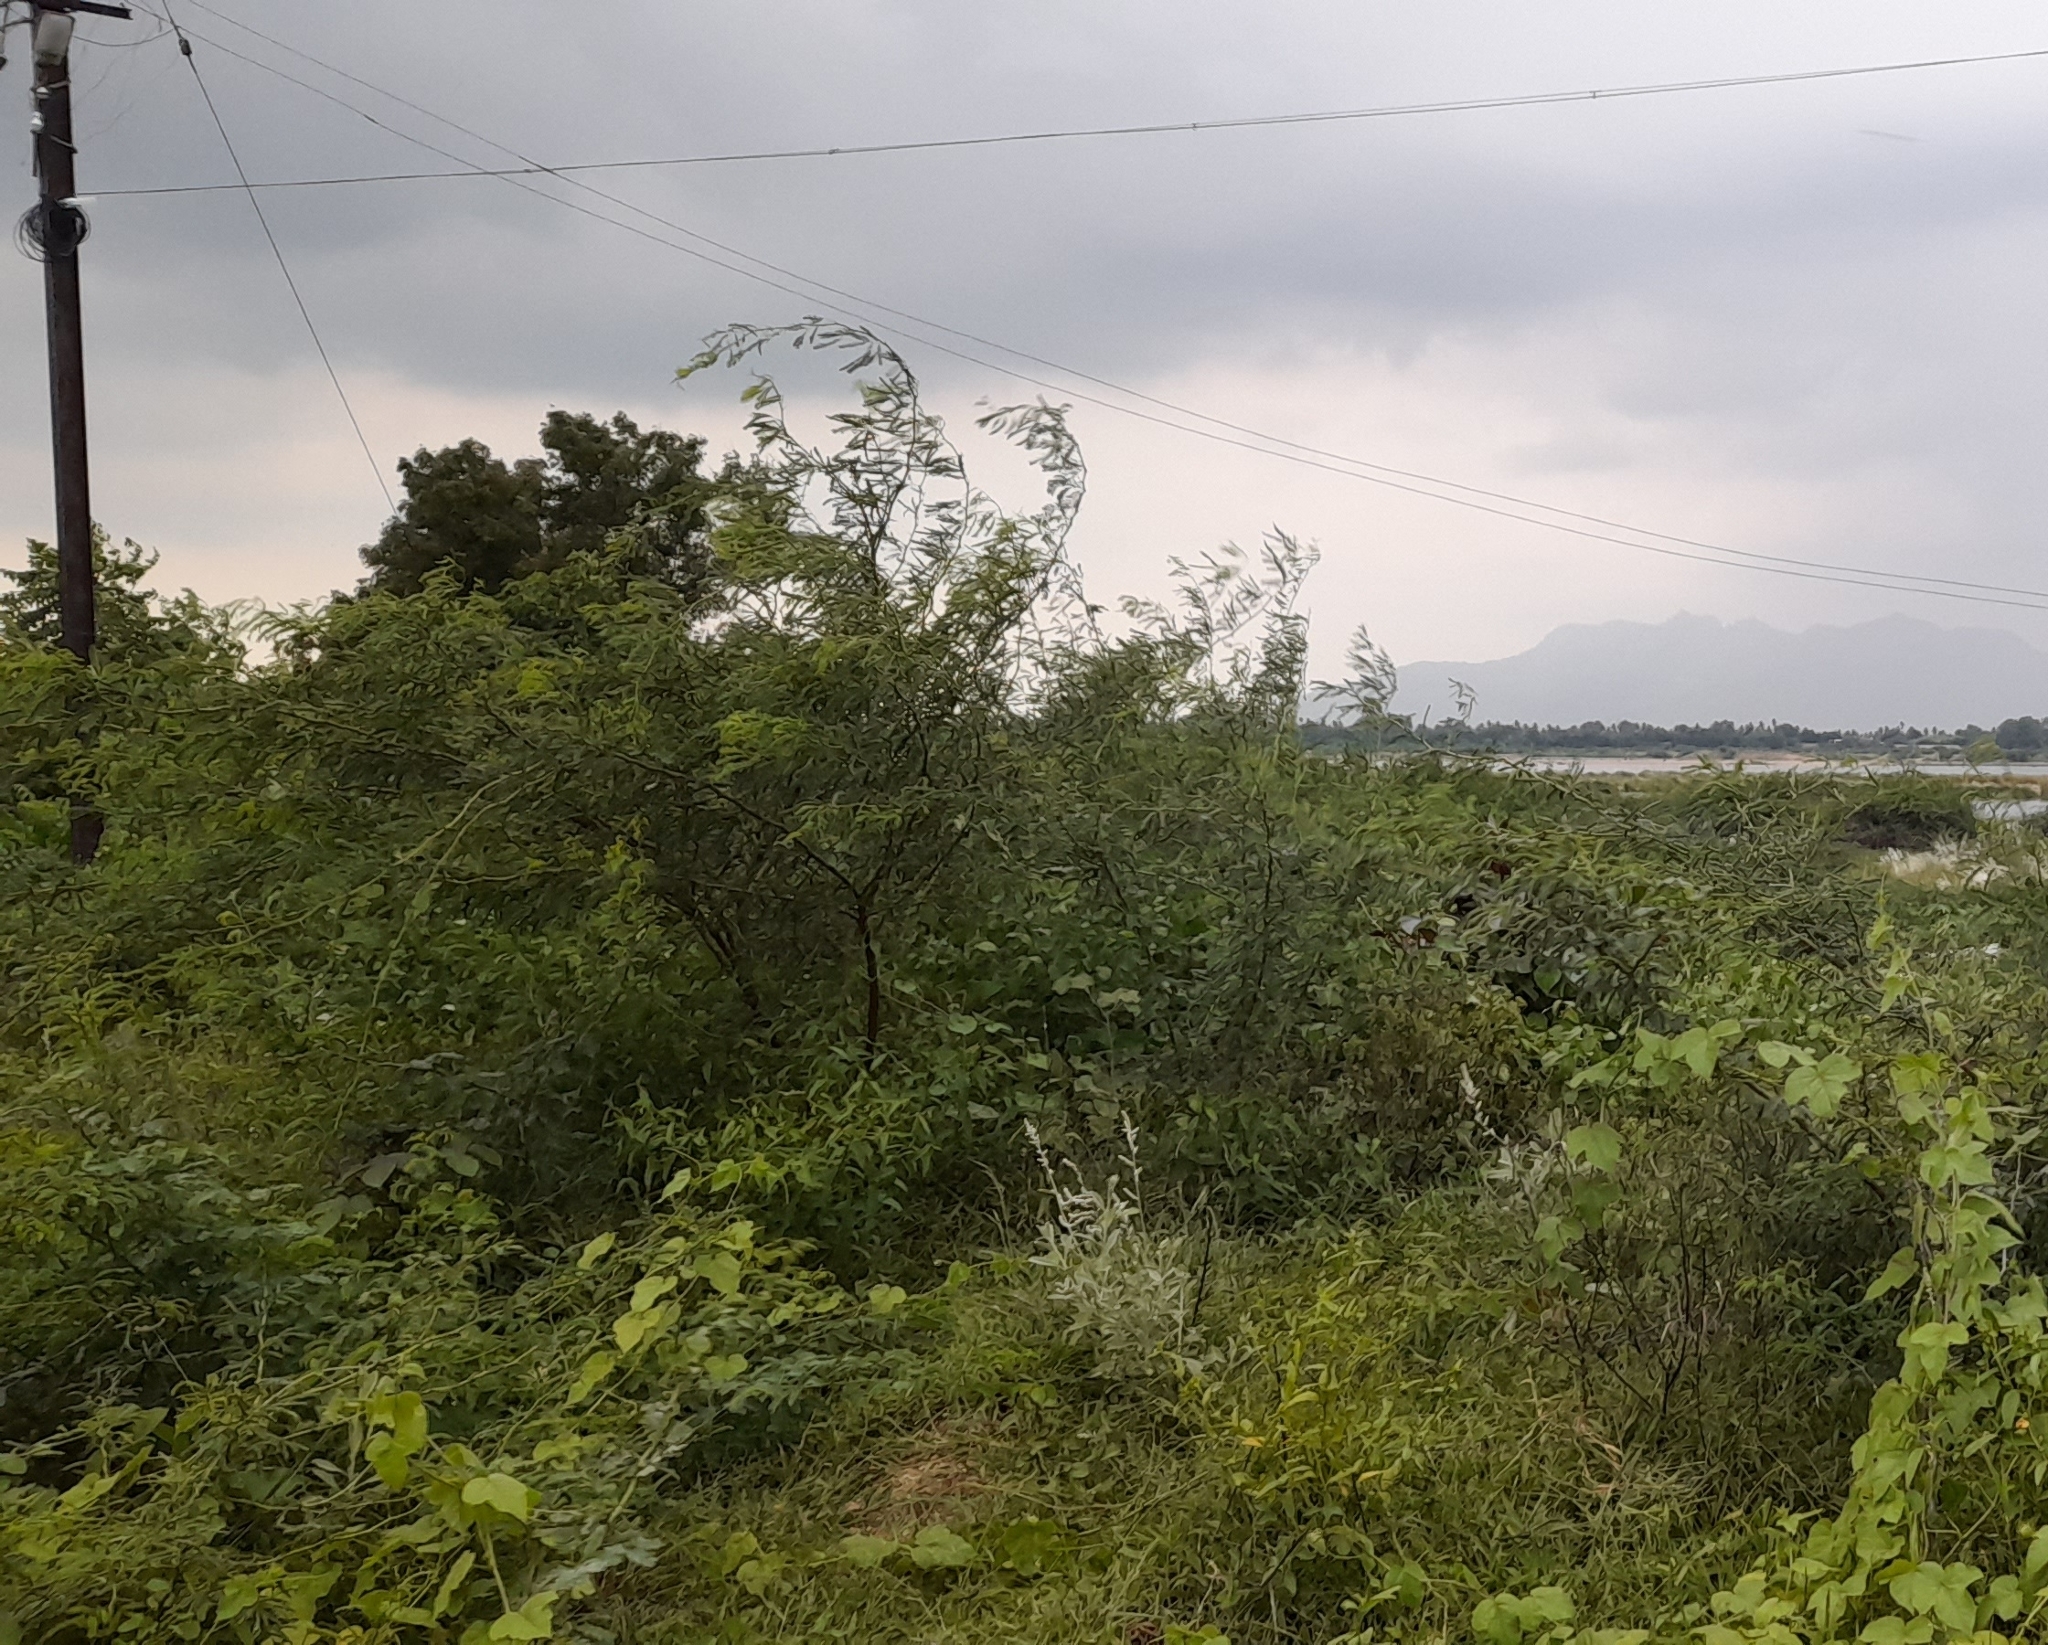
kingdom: Plantae
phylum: Tracheophyta
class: Magnoliopsida
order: Fabales
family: Fabaceae
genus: Prosopis
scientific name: Prosopis juliflora
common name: Mesquite
